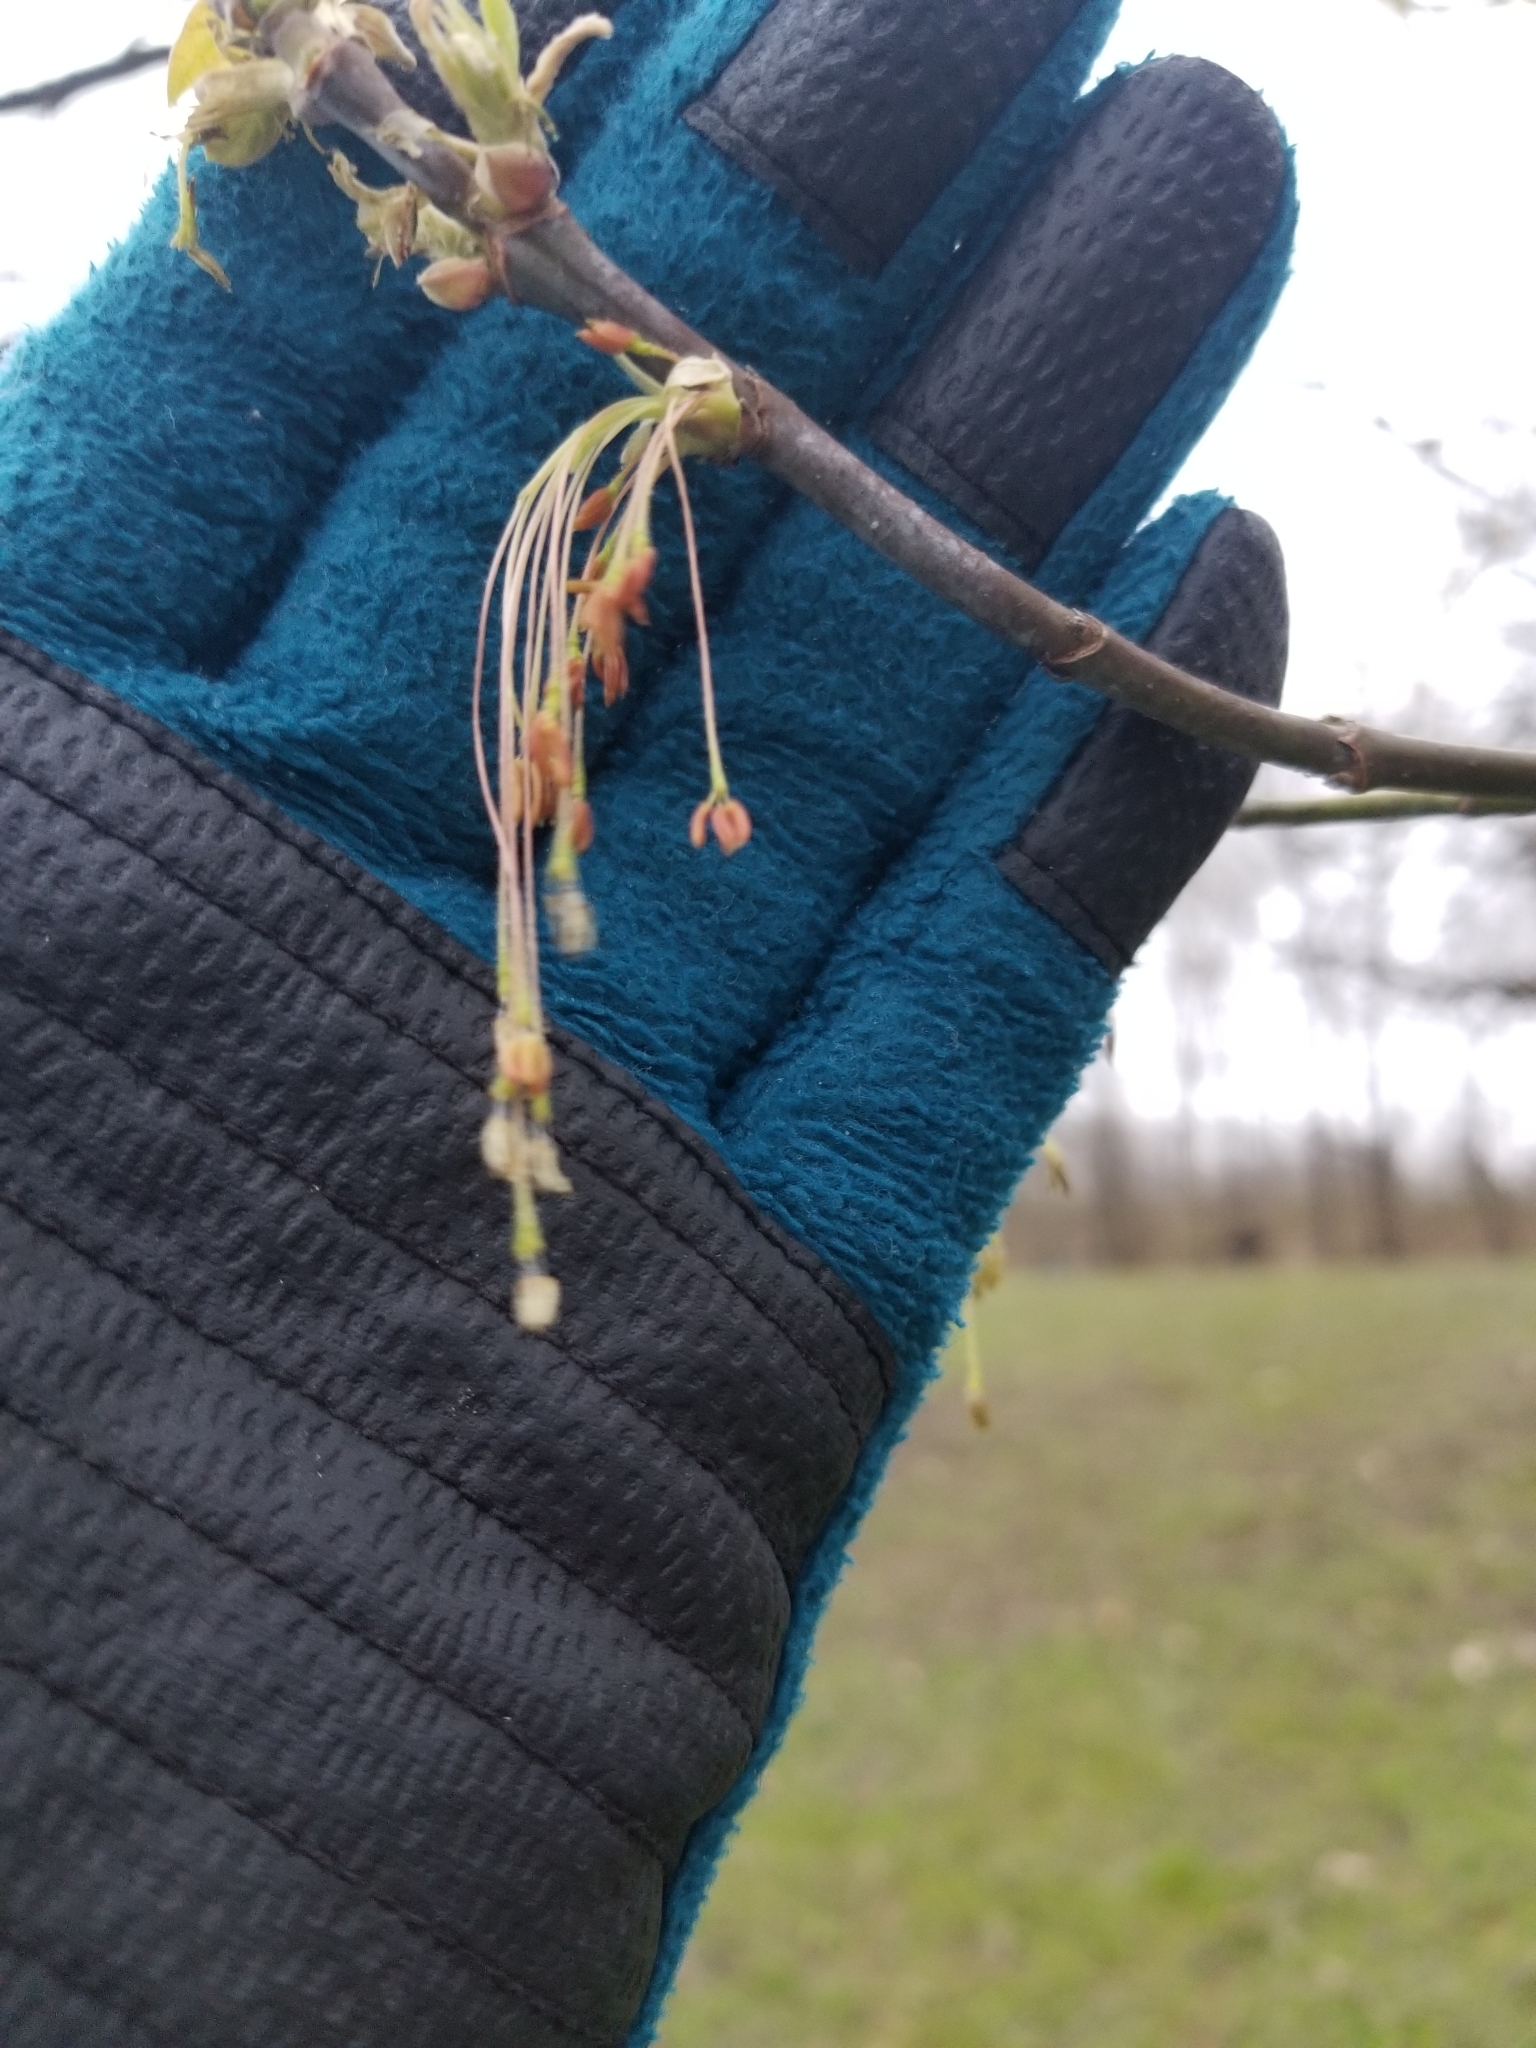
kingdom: Plantae
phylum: Tracheophyta
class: Magnoliopsida
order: Sapindales
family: Sapindaceae
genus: Acer
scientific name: Acer negundo
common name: Ashleaf maple
